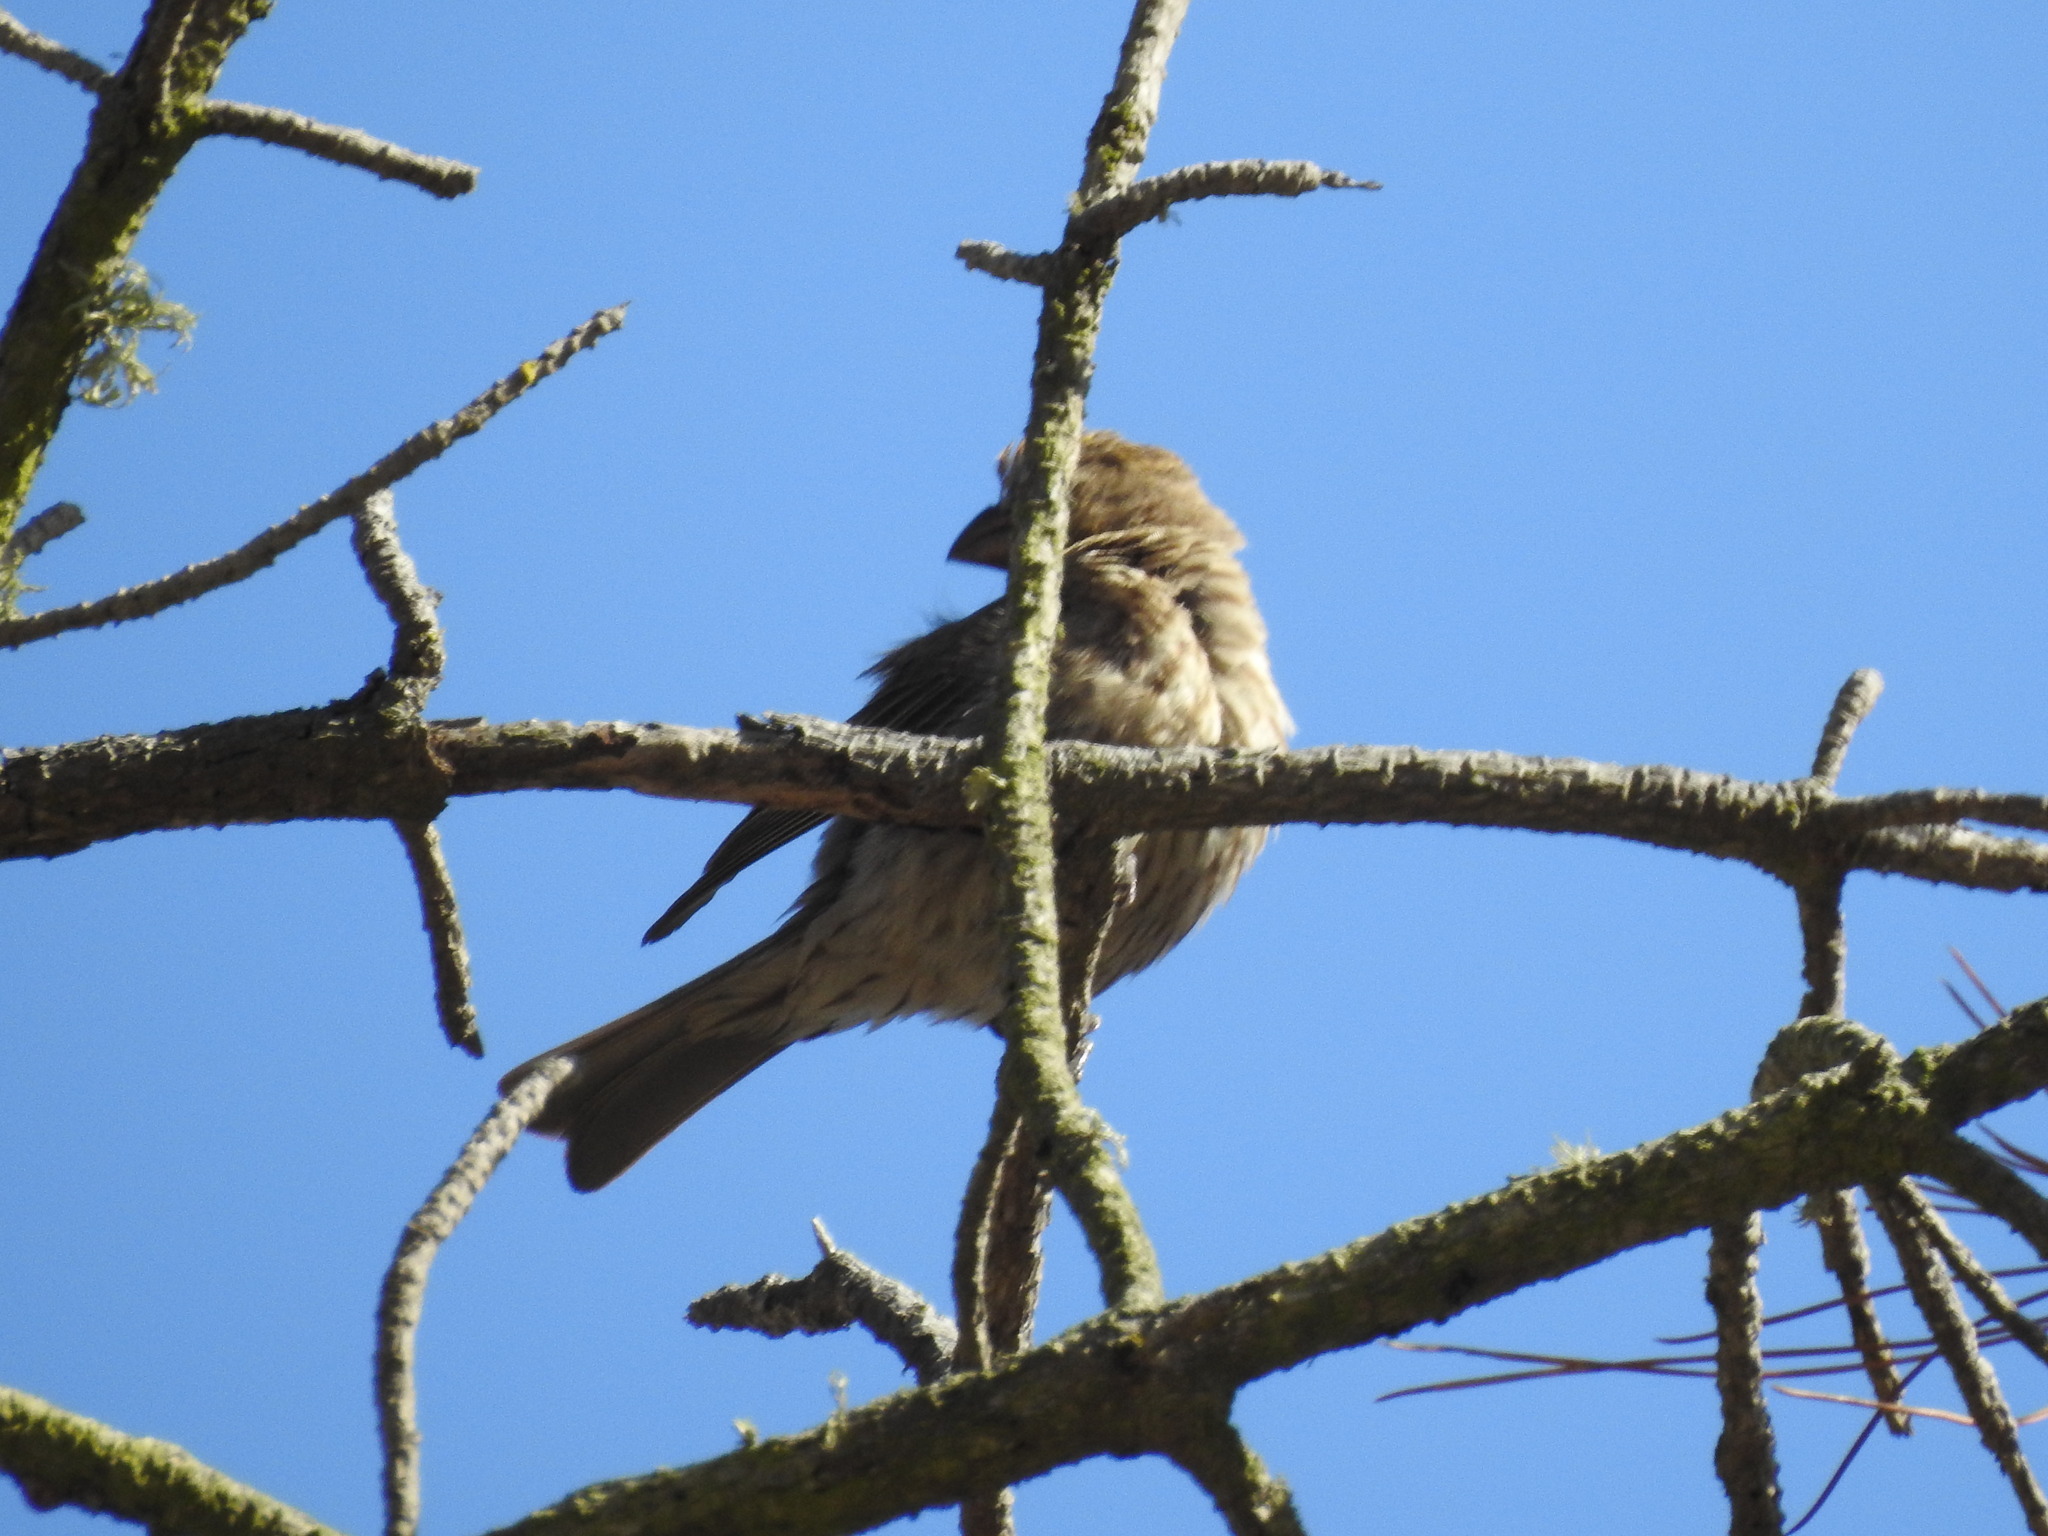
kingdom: Animalia
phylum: Chordata
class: Aves
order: Passeriformes
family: Fringillidae
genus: Haemorhous
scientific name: Haemorhous mexicanus
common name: House finch
